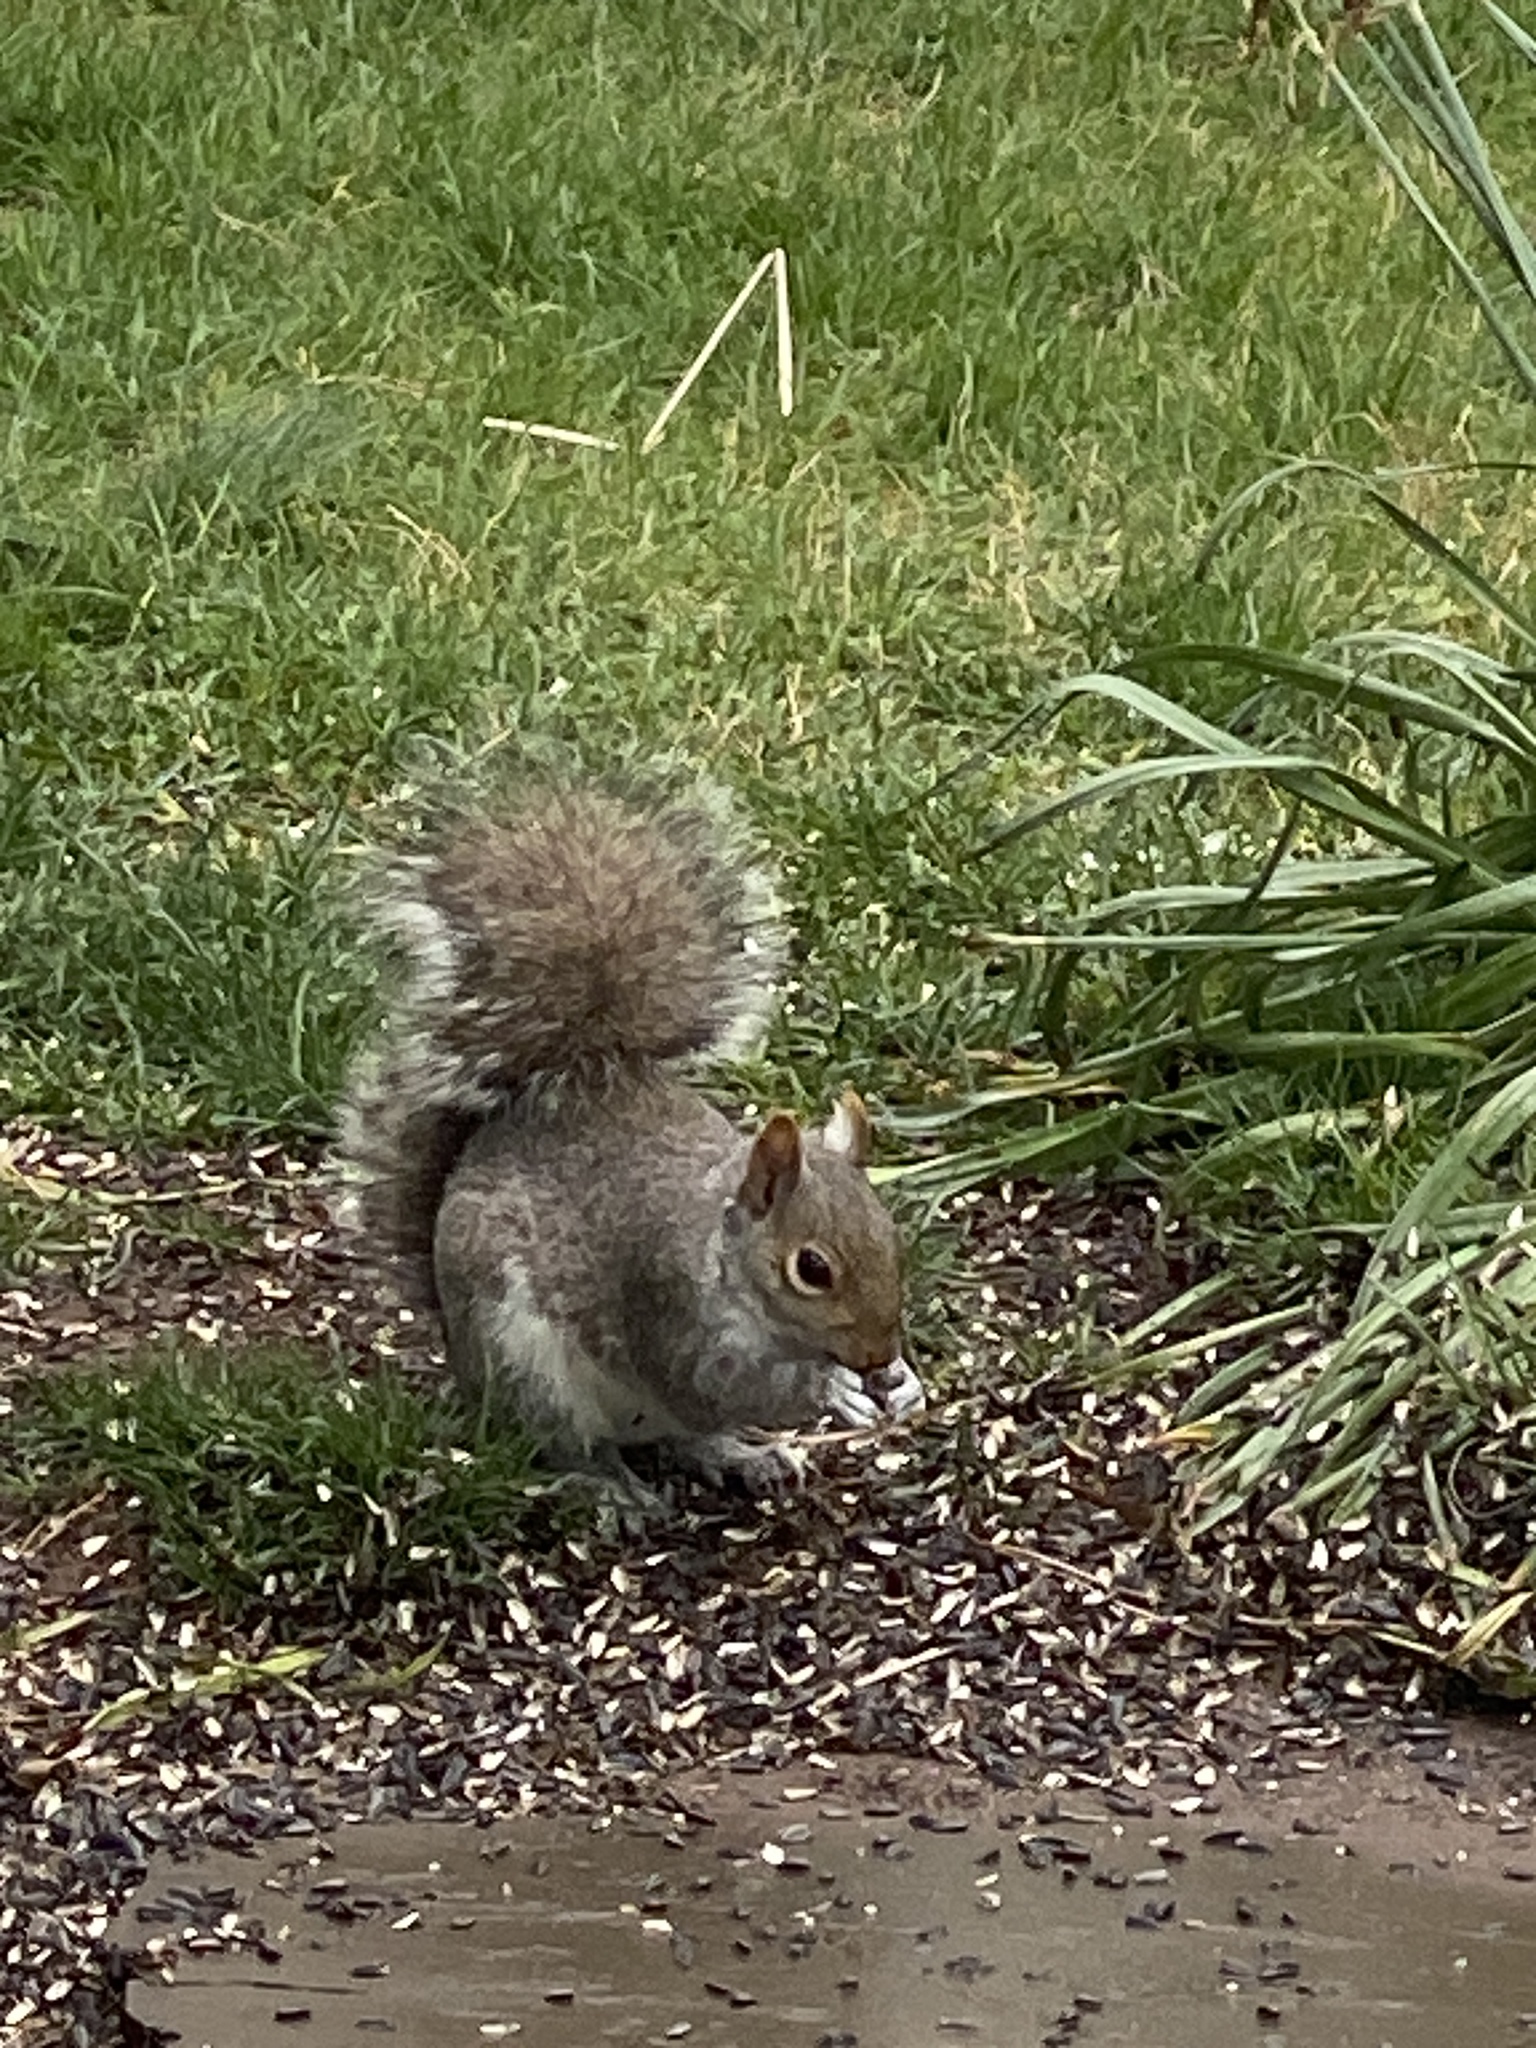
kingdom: Animalia
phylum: Chordata
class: Mammalia
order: Rodentia
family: Sciuridae
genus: Sciurus
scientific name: Sciurus carolinensis
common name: Eastern gray squirrel
